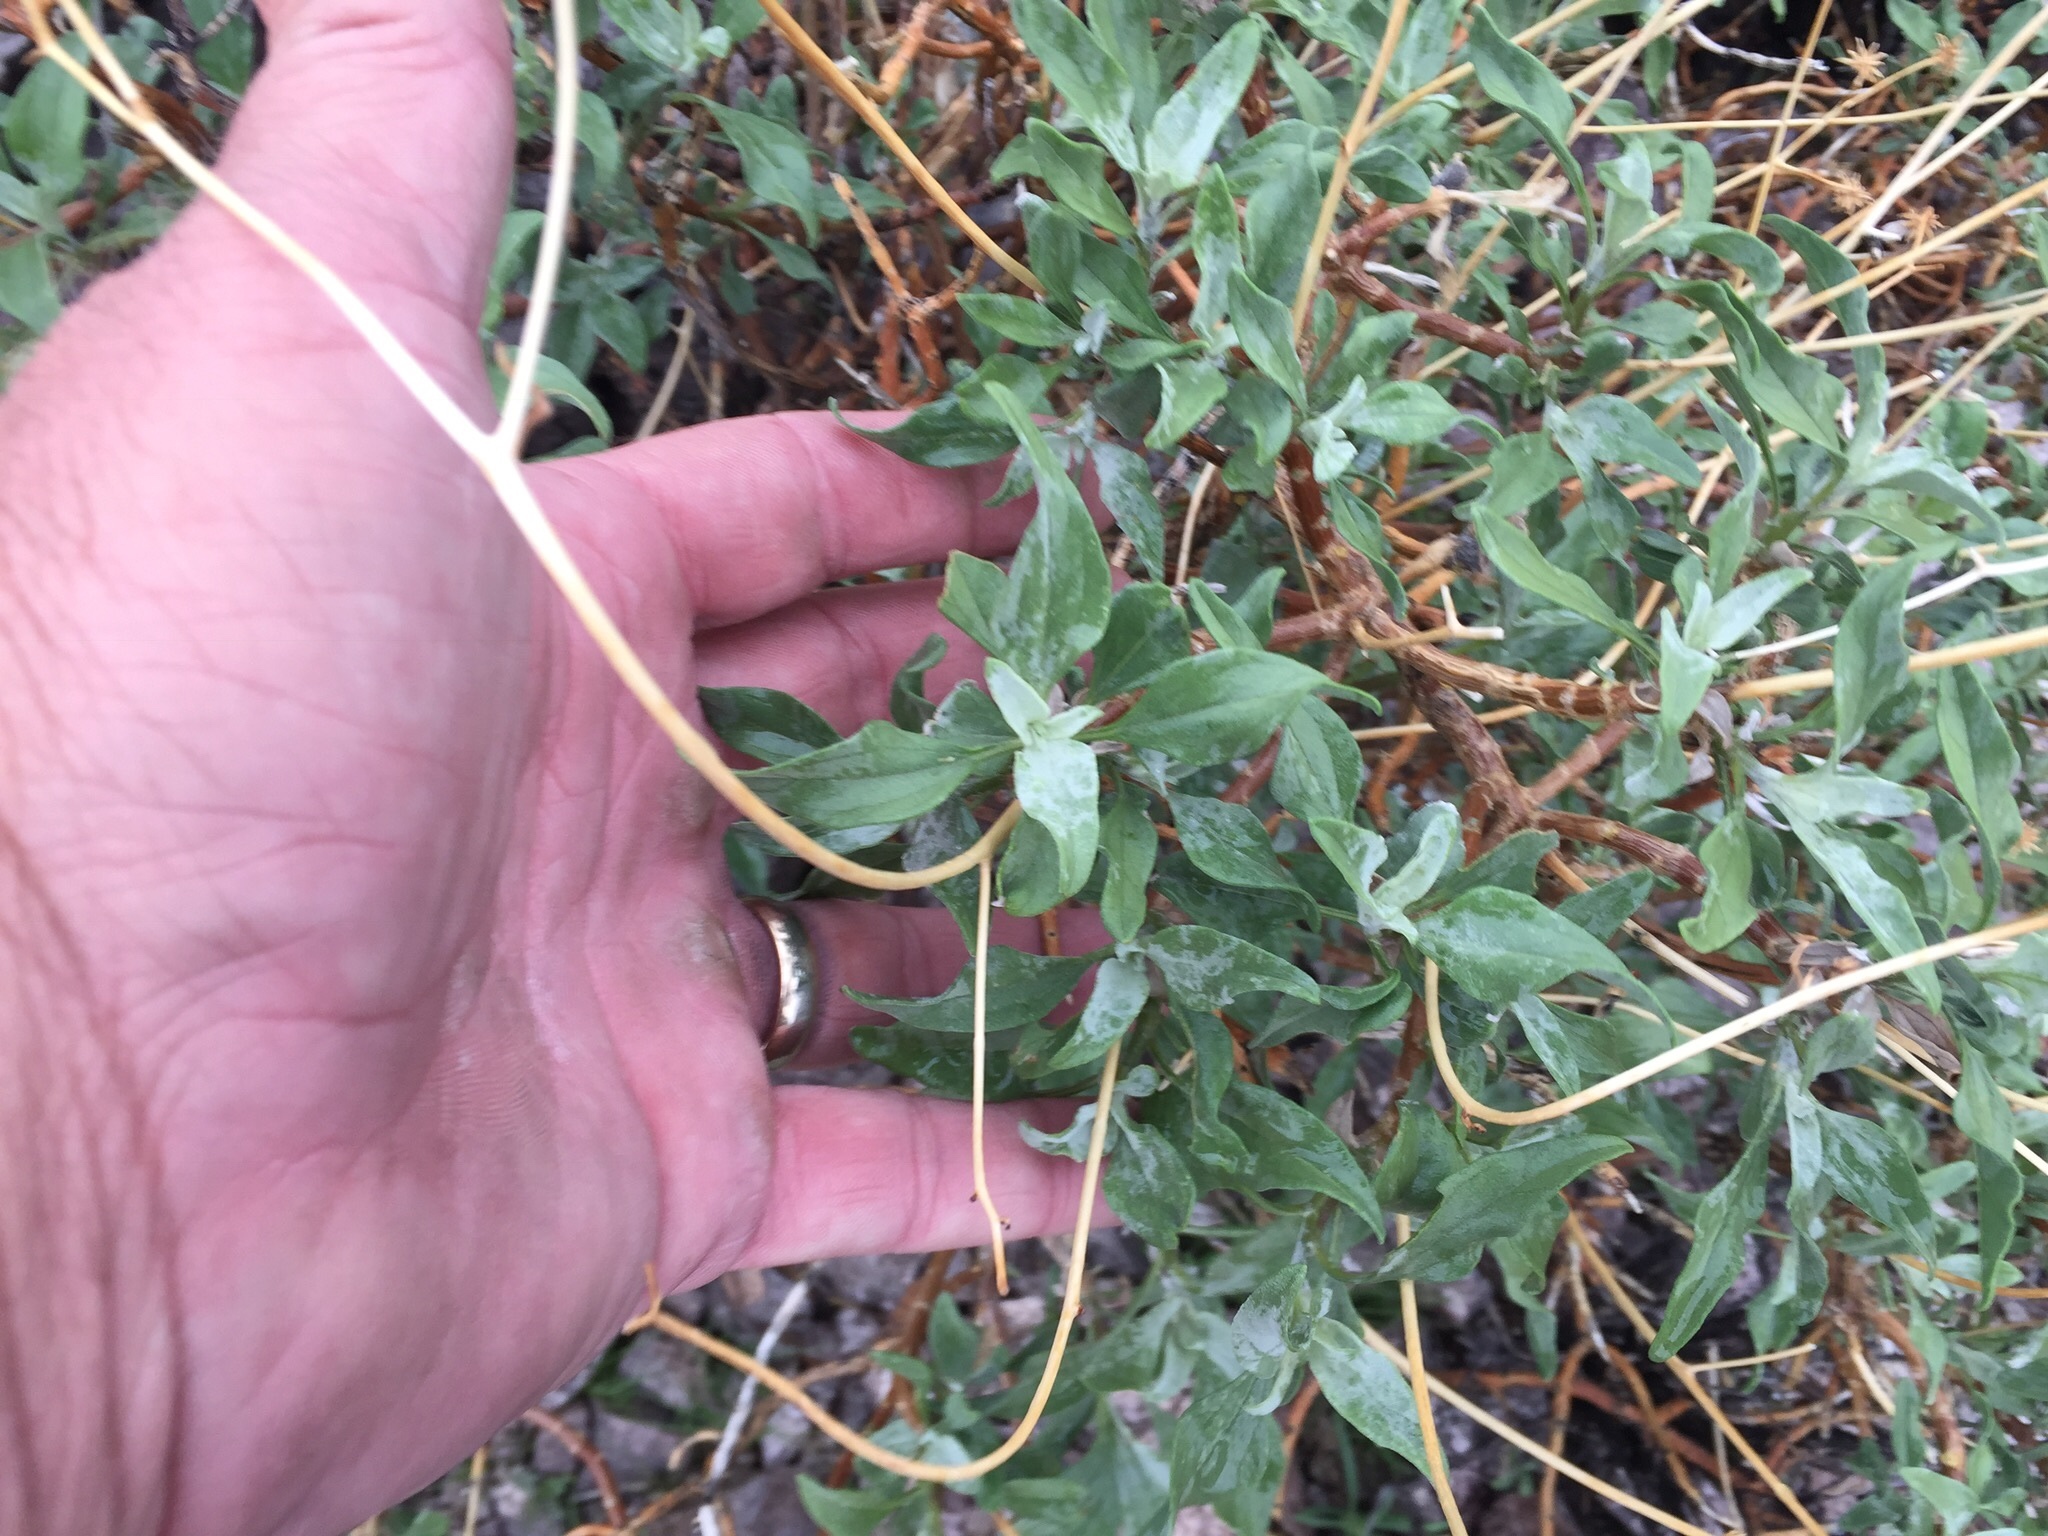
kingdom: Plantae
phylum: Tracheophyta
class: Magnoliopsida
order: Asterales
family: Asteraceae
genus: Encelia
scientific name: Encelia farinosa
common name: Brittlebush
